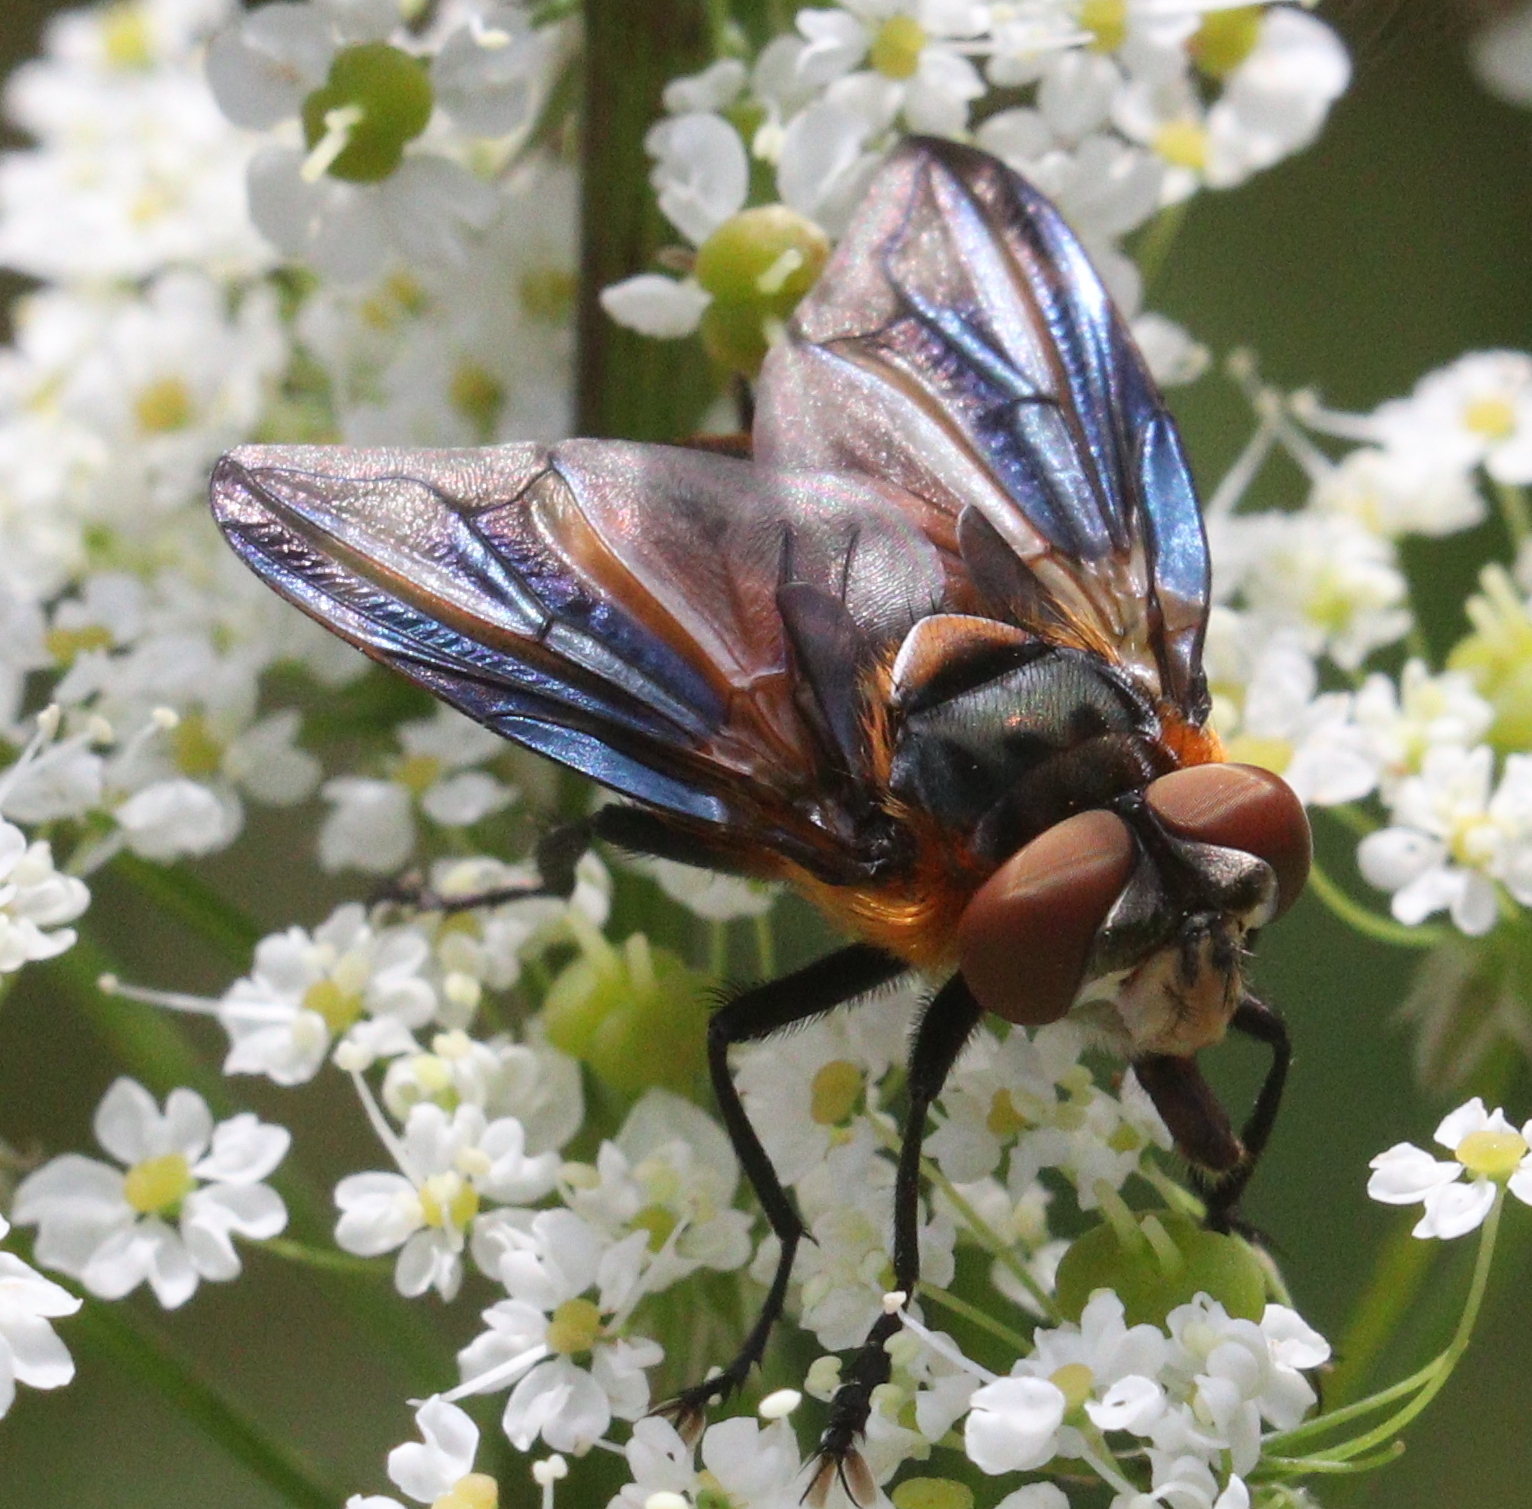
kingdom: Animalia
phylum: Arthropoda
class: Insecta
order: Diptera
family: Tachinidae
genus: Phasia
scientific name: Phasia hemiptera
